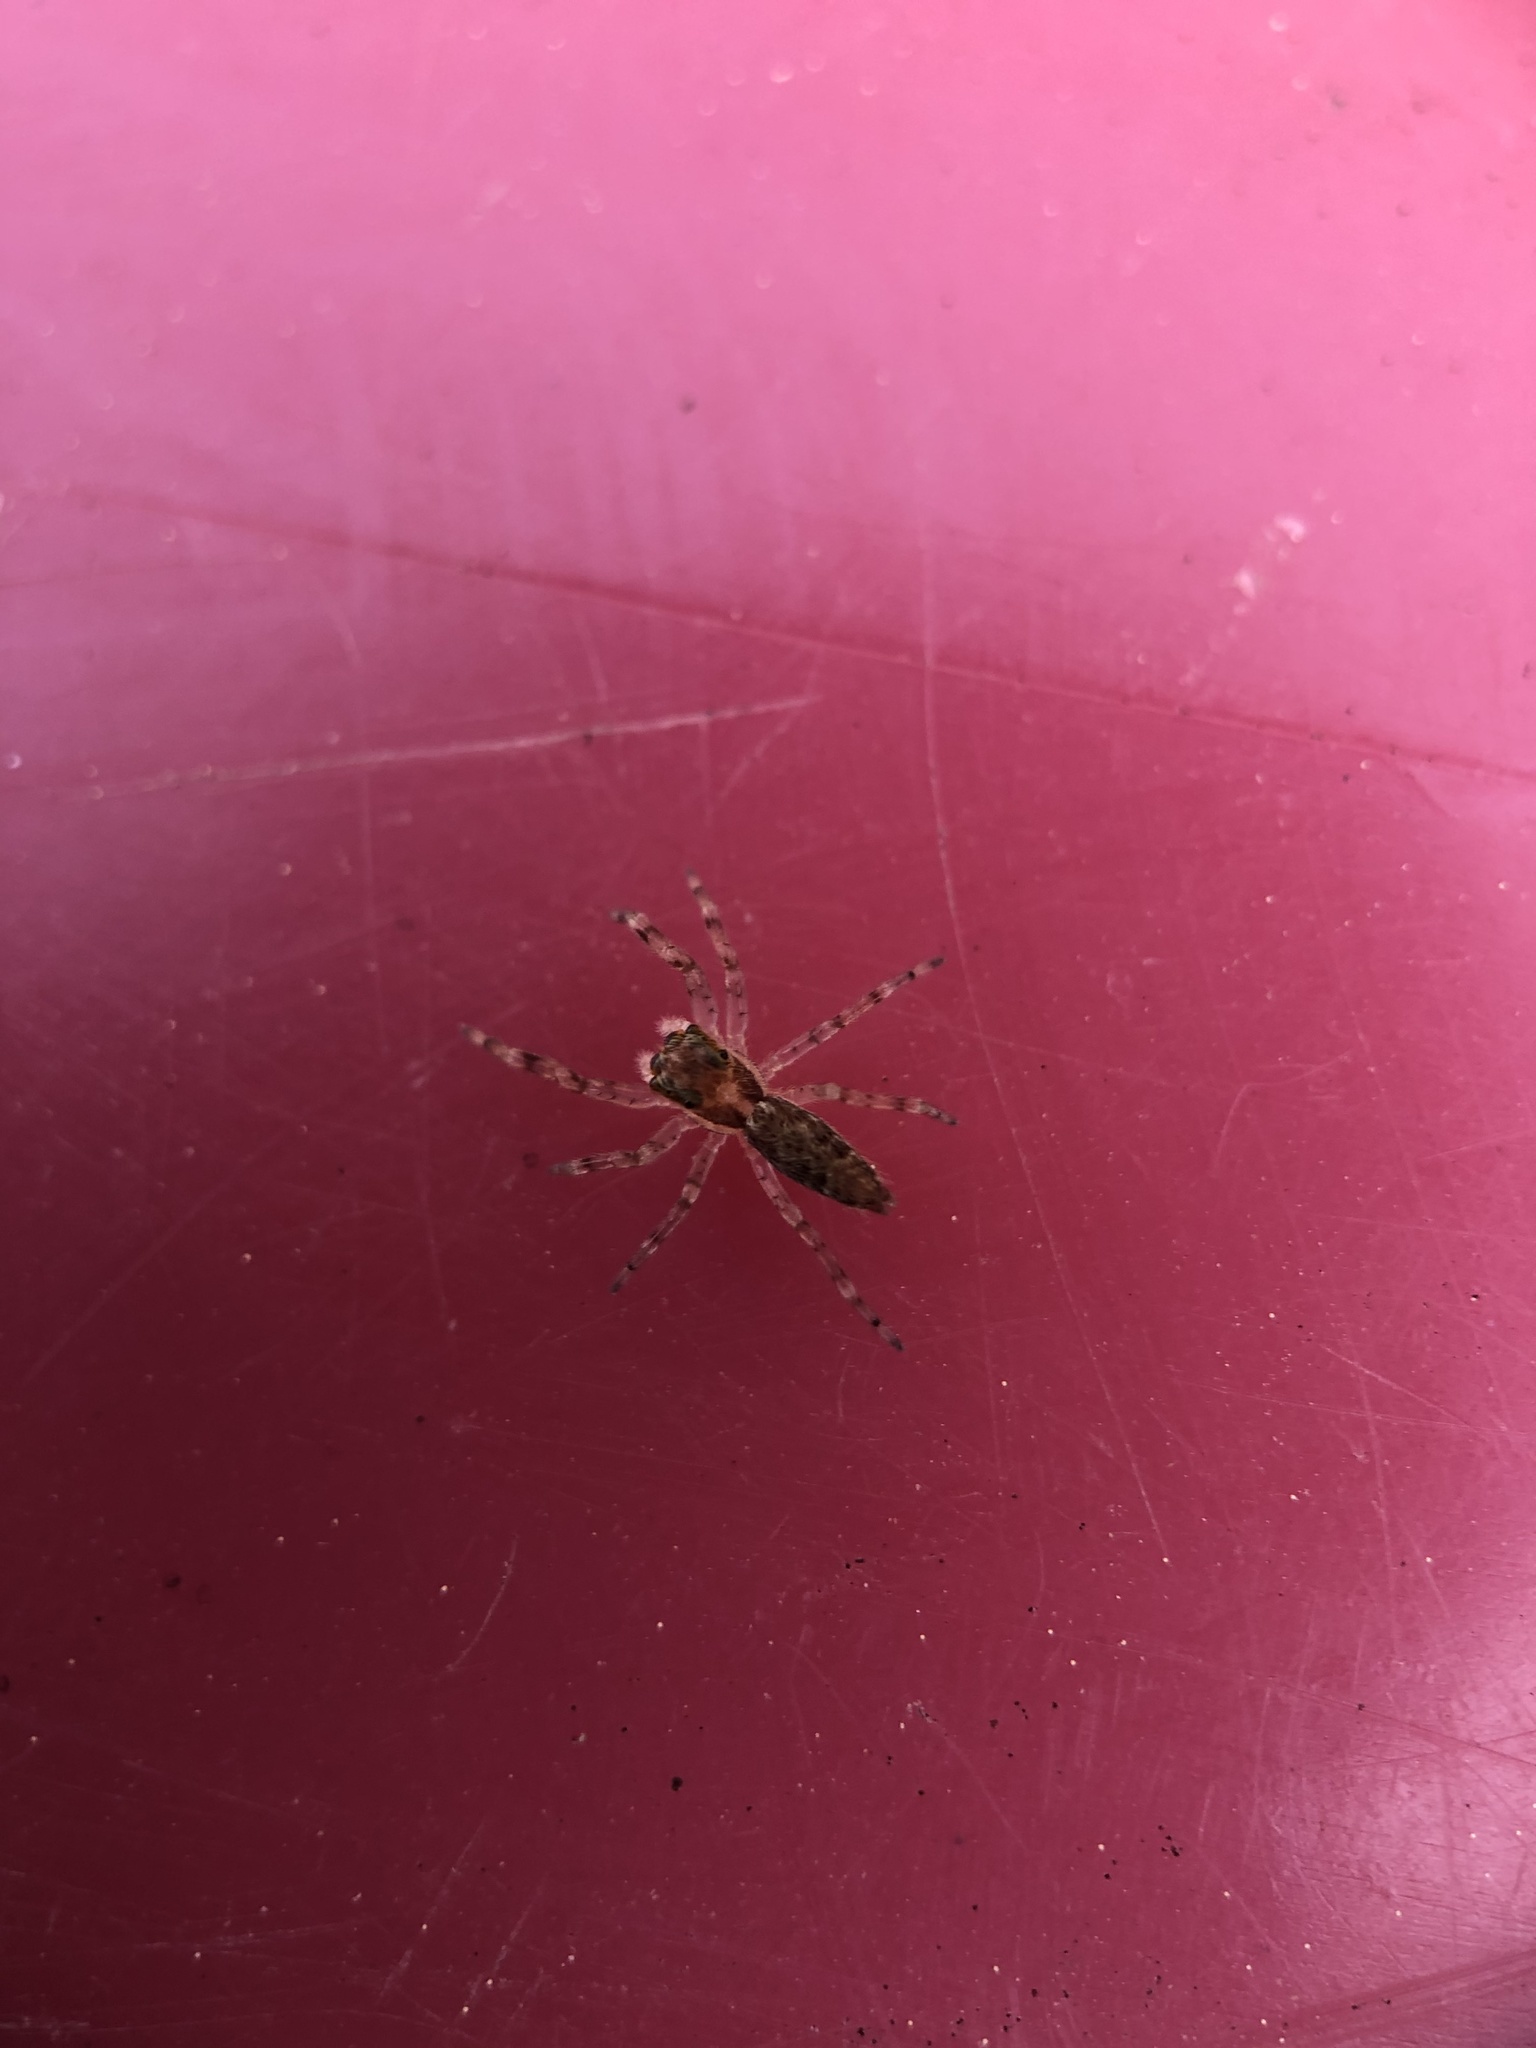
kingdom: Animalia
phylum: Arthropoda
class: Arachnida
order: Araneae
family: Salticidae
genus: Helpis
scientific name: Helpis minitabunda
